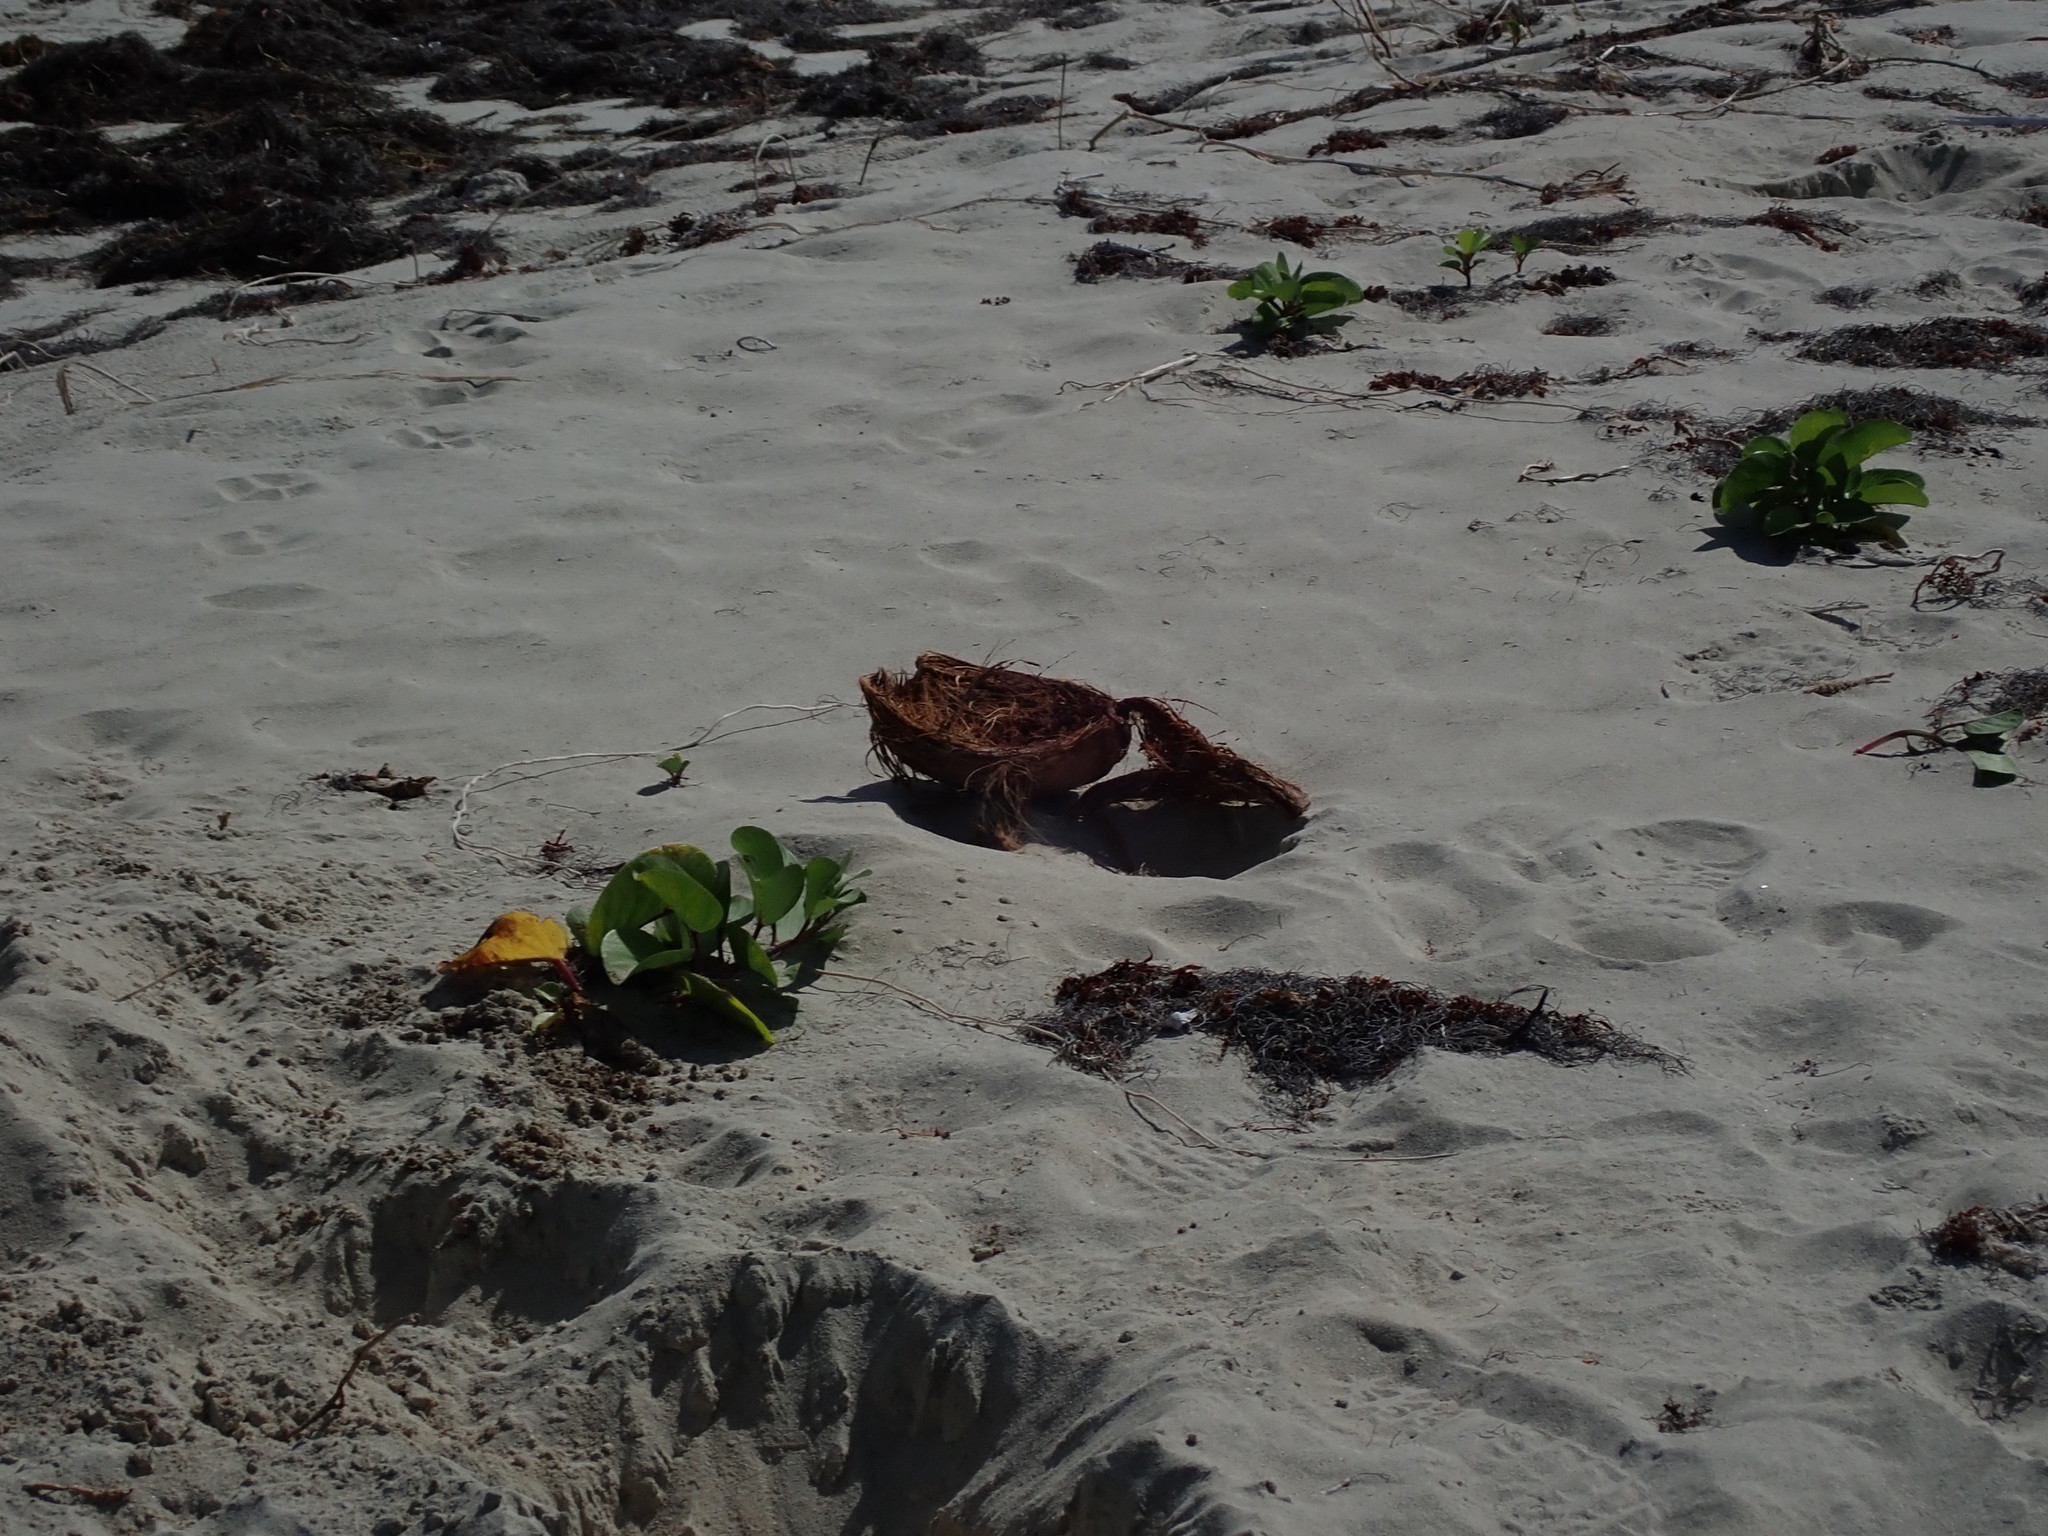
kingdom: Plantae
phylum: Tracheophyta
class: Liliopsida
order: Arecales
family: Arecaceae
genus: Cocos
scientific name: Cocos nucifera
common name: Coconut palm
